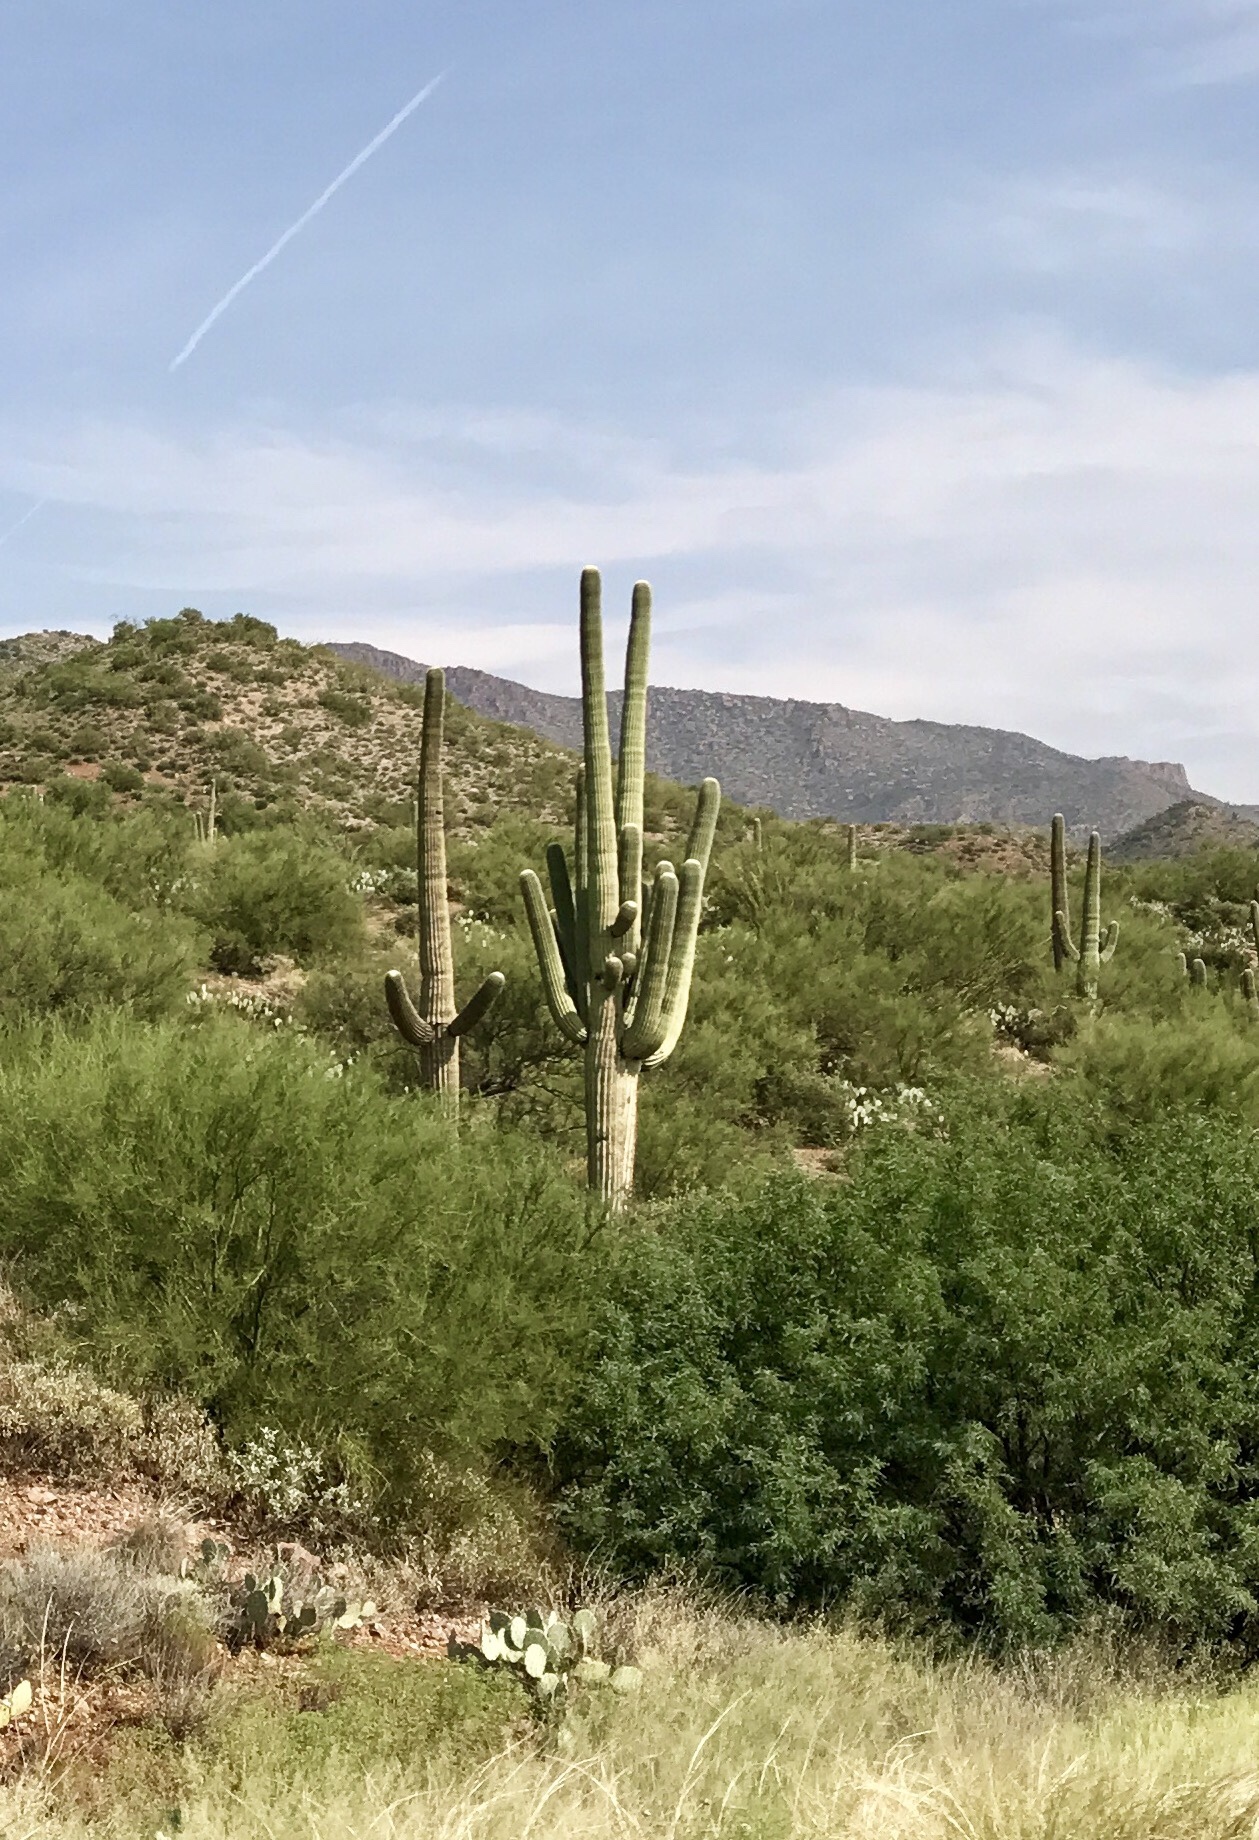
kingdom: Plantae
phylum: Tracheophyta
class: Magnoliopsida
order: Caryophyllales
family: Cactaceae
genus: Carnegiea
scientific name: Carnegiea gigantea
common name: Saguaro
